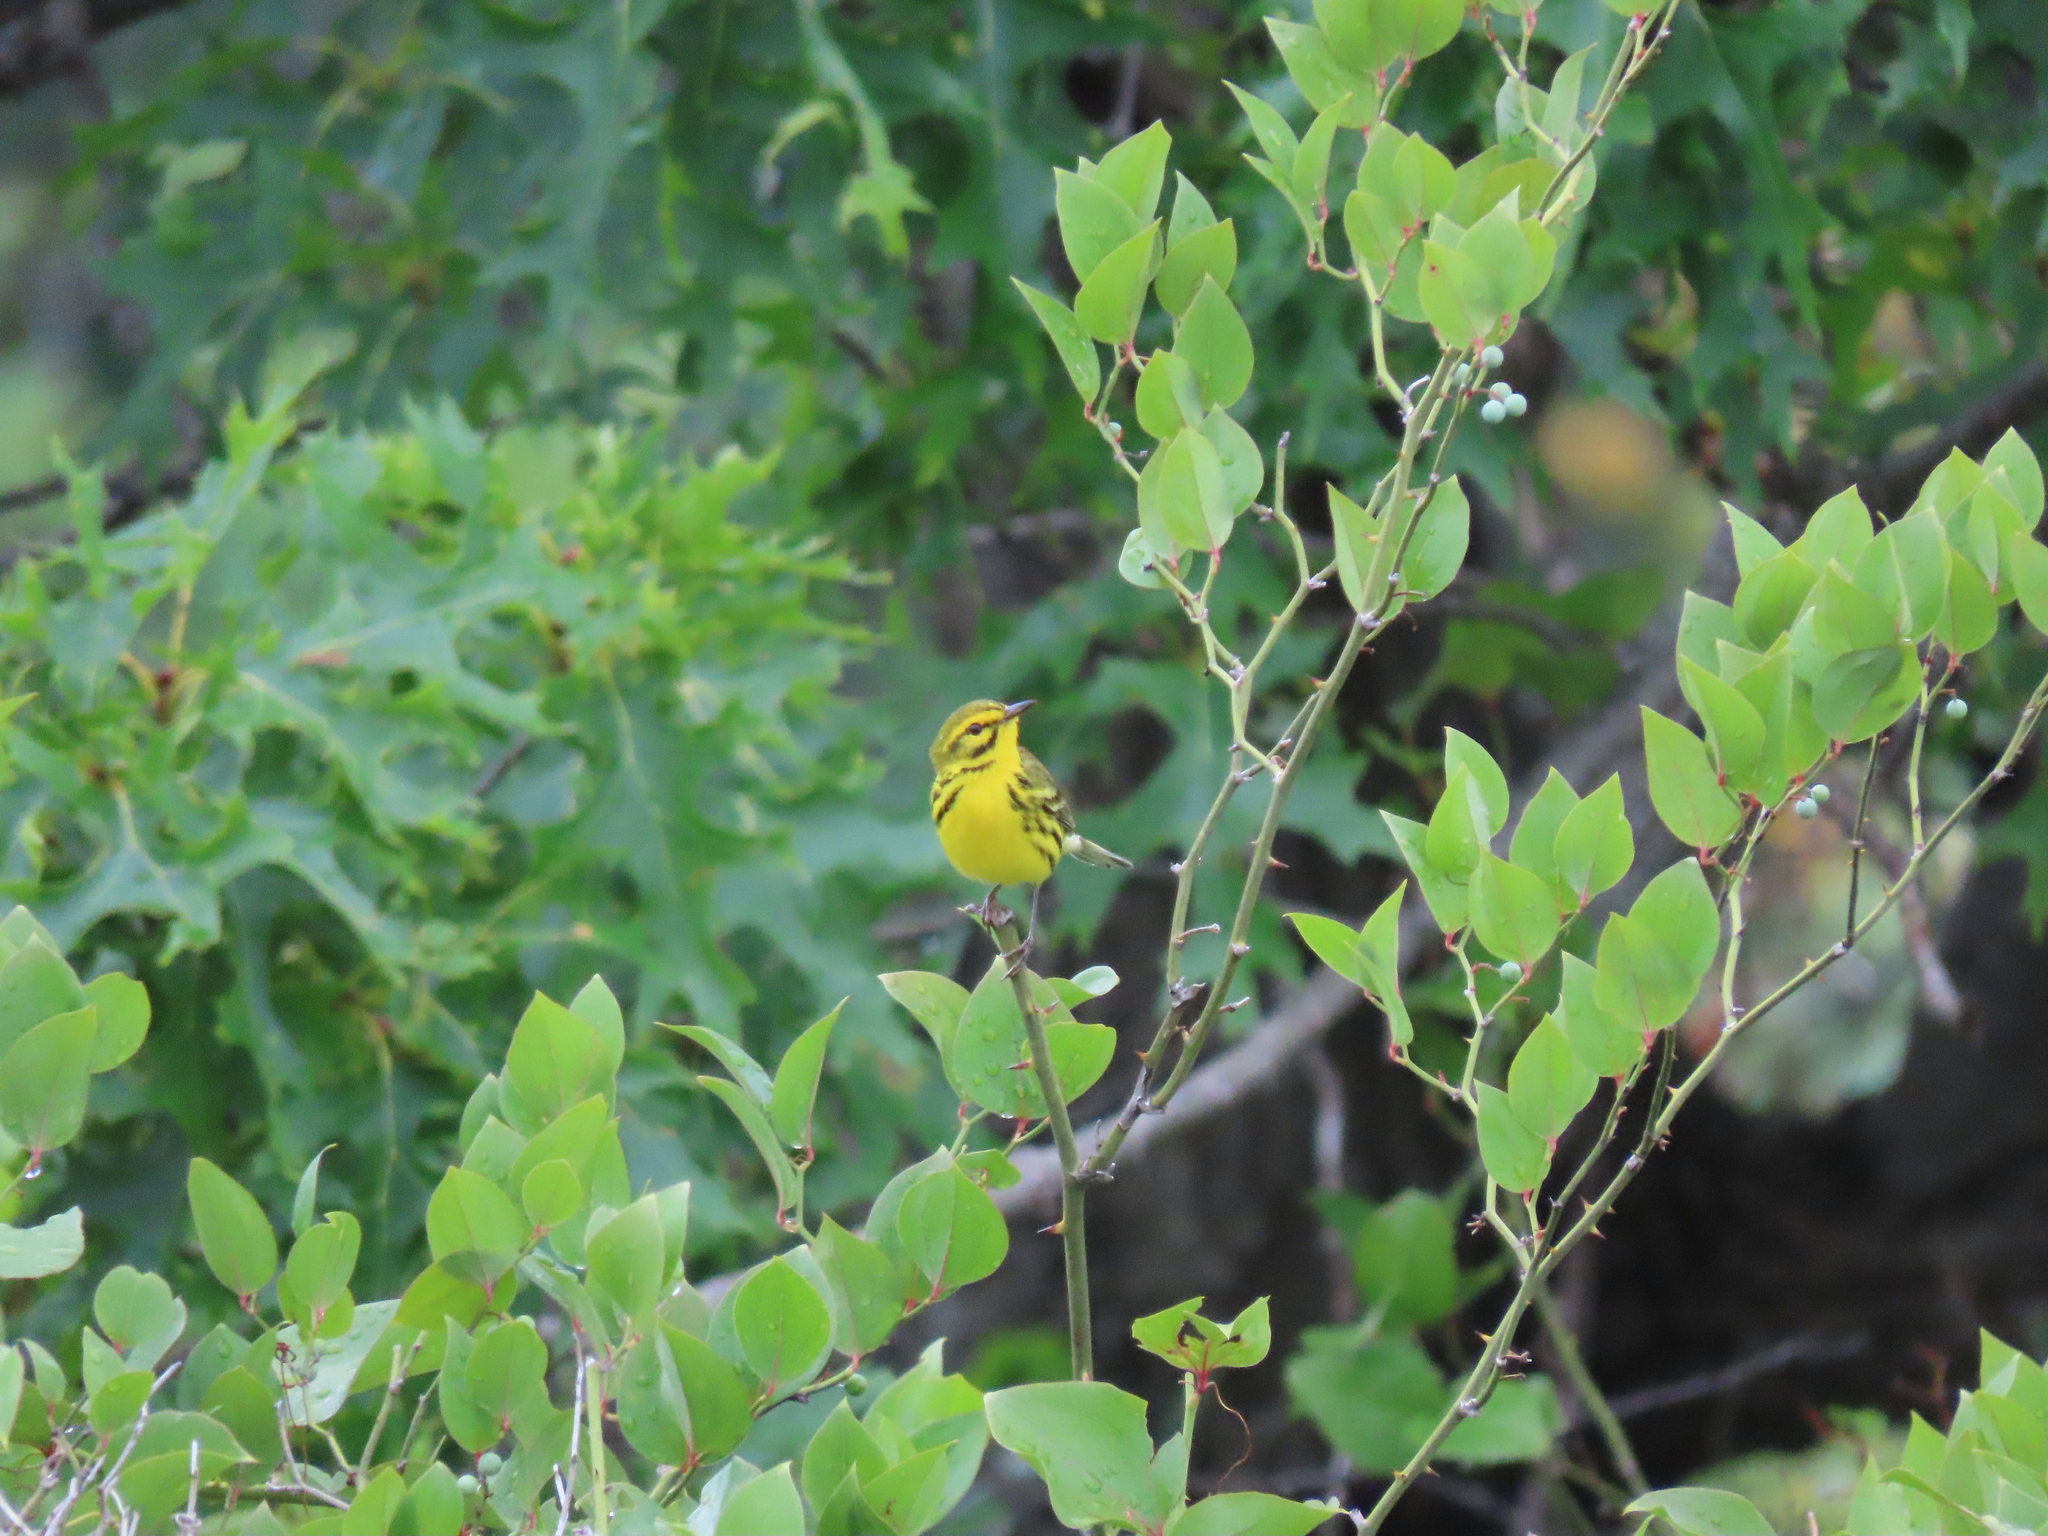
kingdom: Animalia
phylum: Chordata
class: Aves
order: Passeriformes
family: Parulidae
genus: Setophaga
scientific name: Setophaga discolor
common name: Prairie warbler
